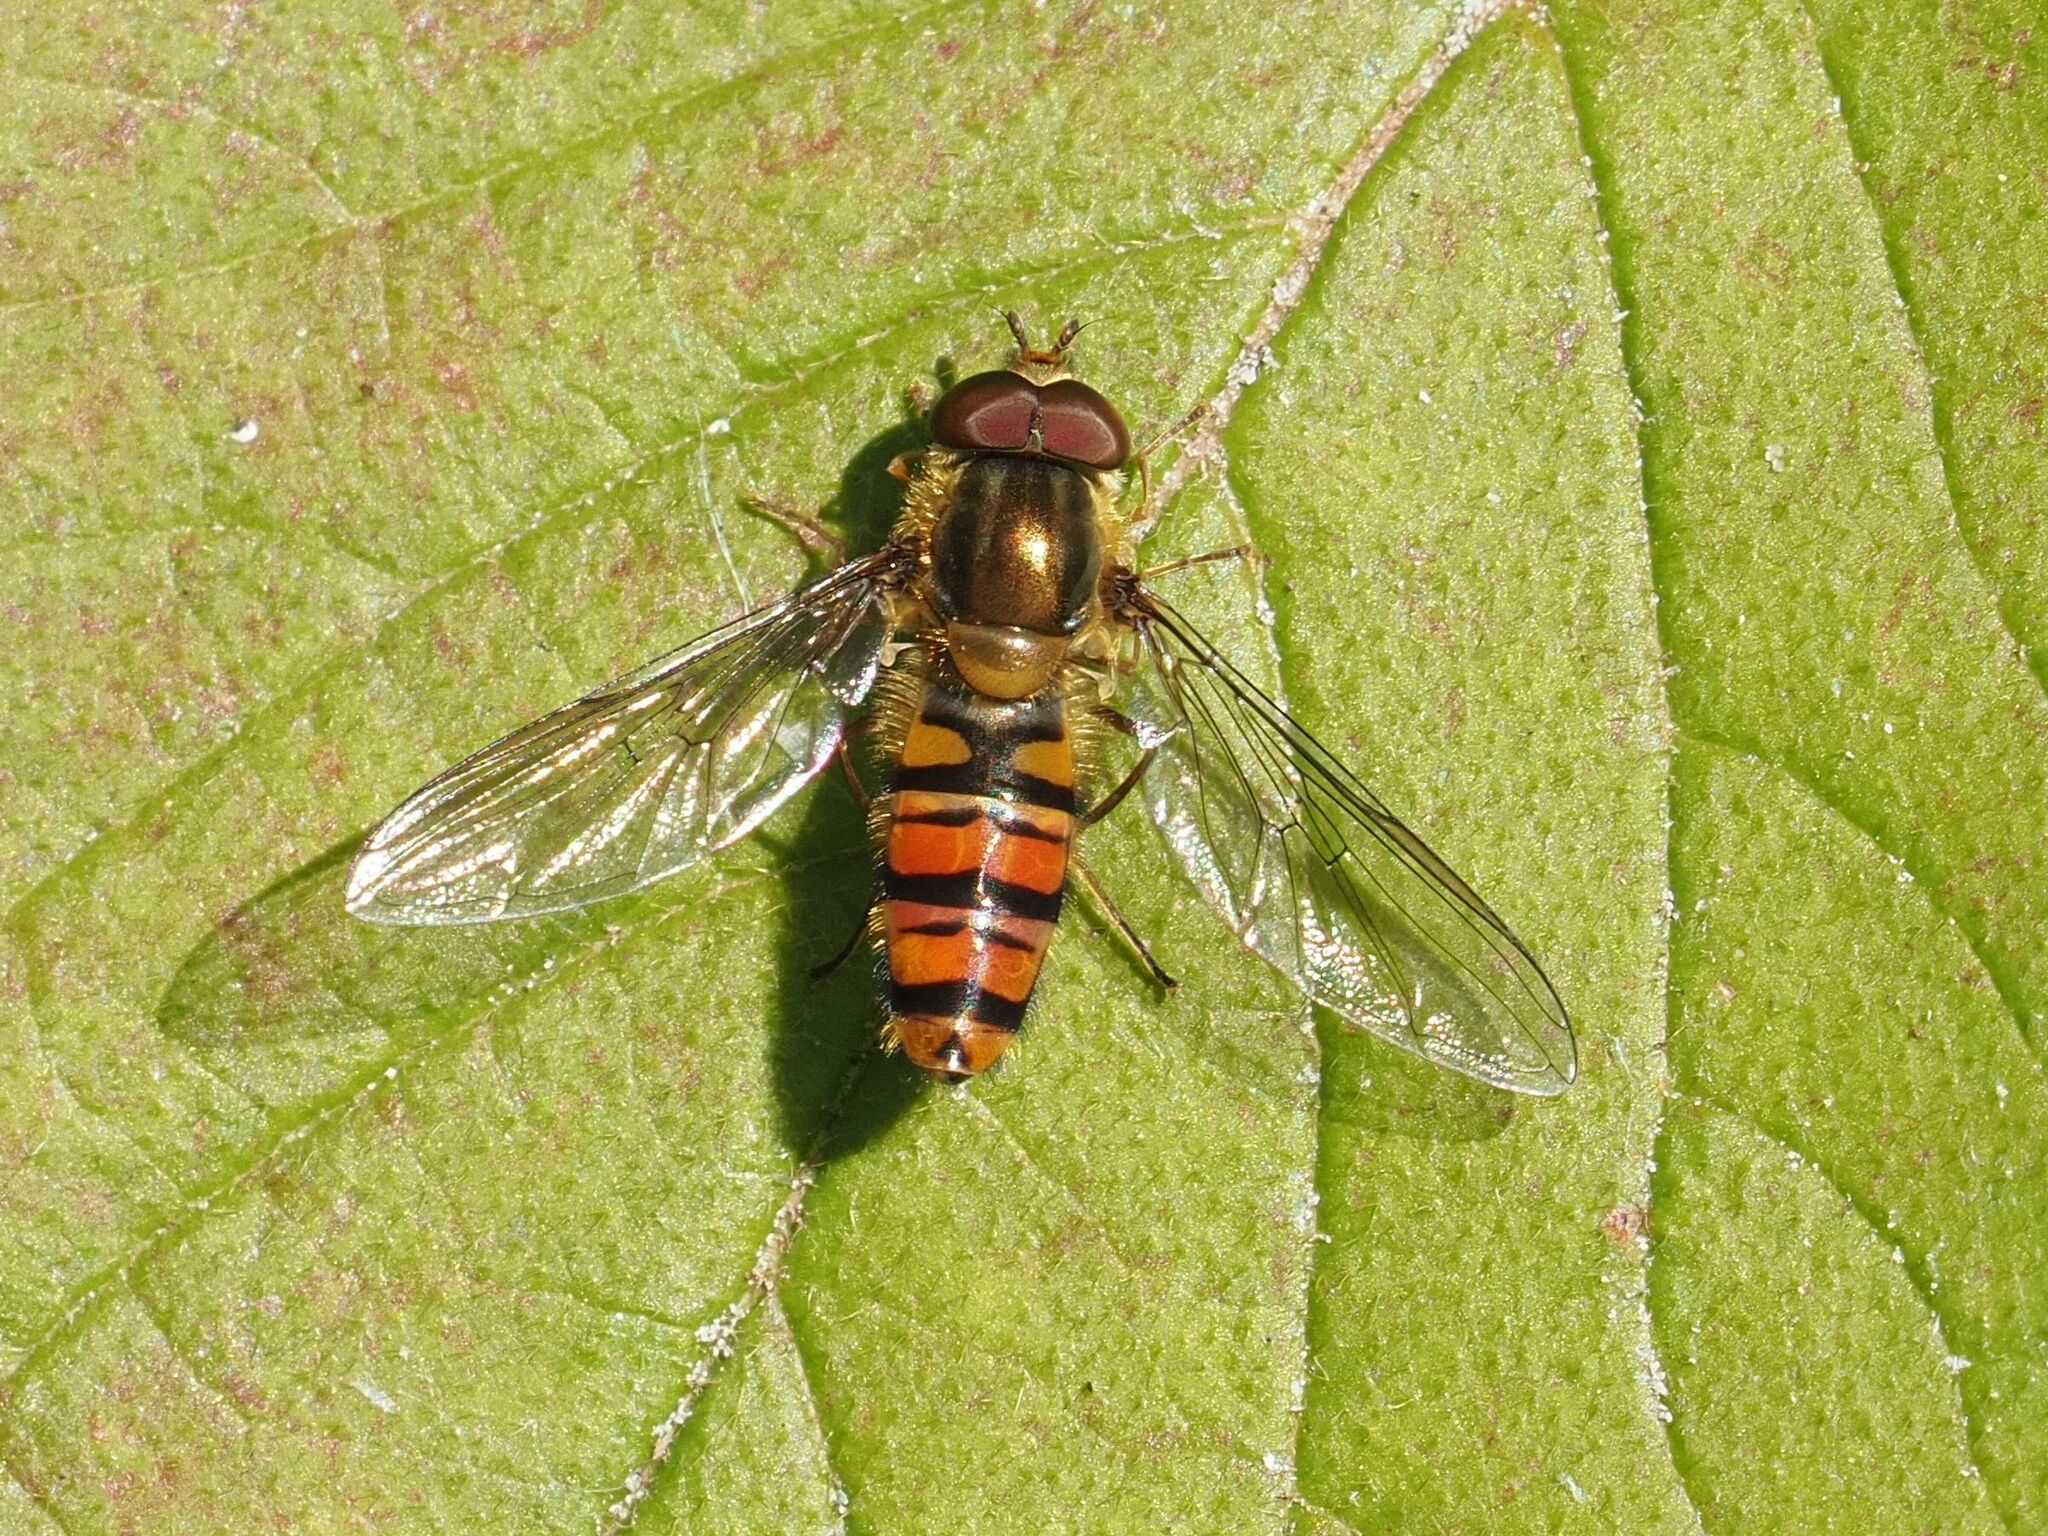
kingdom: Animalia
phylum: Arthropoda
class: Insecta
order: Diptera
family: Syrphidae
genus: Episyrphus
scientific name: Episyrphus balteatus
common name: Marmalade hoverfly
